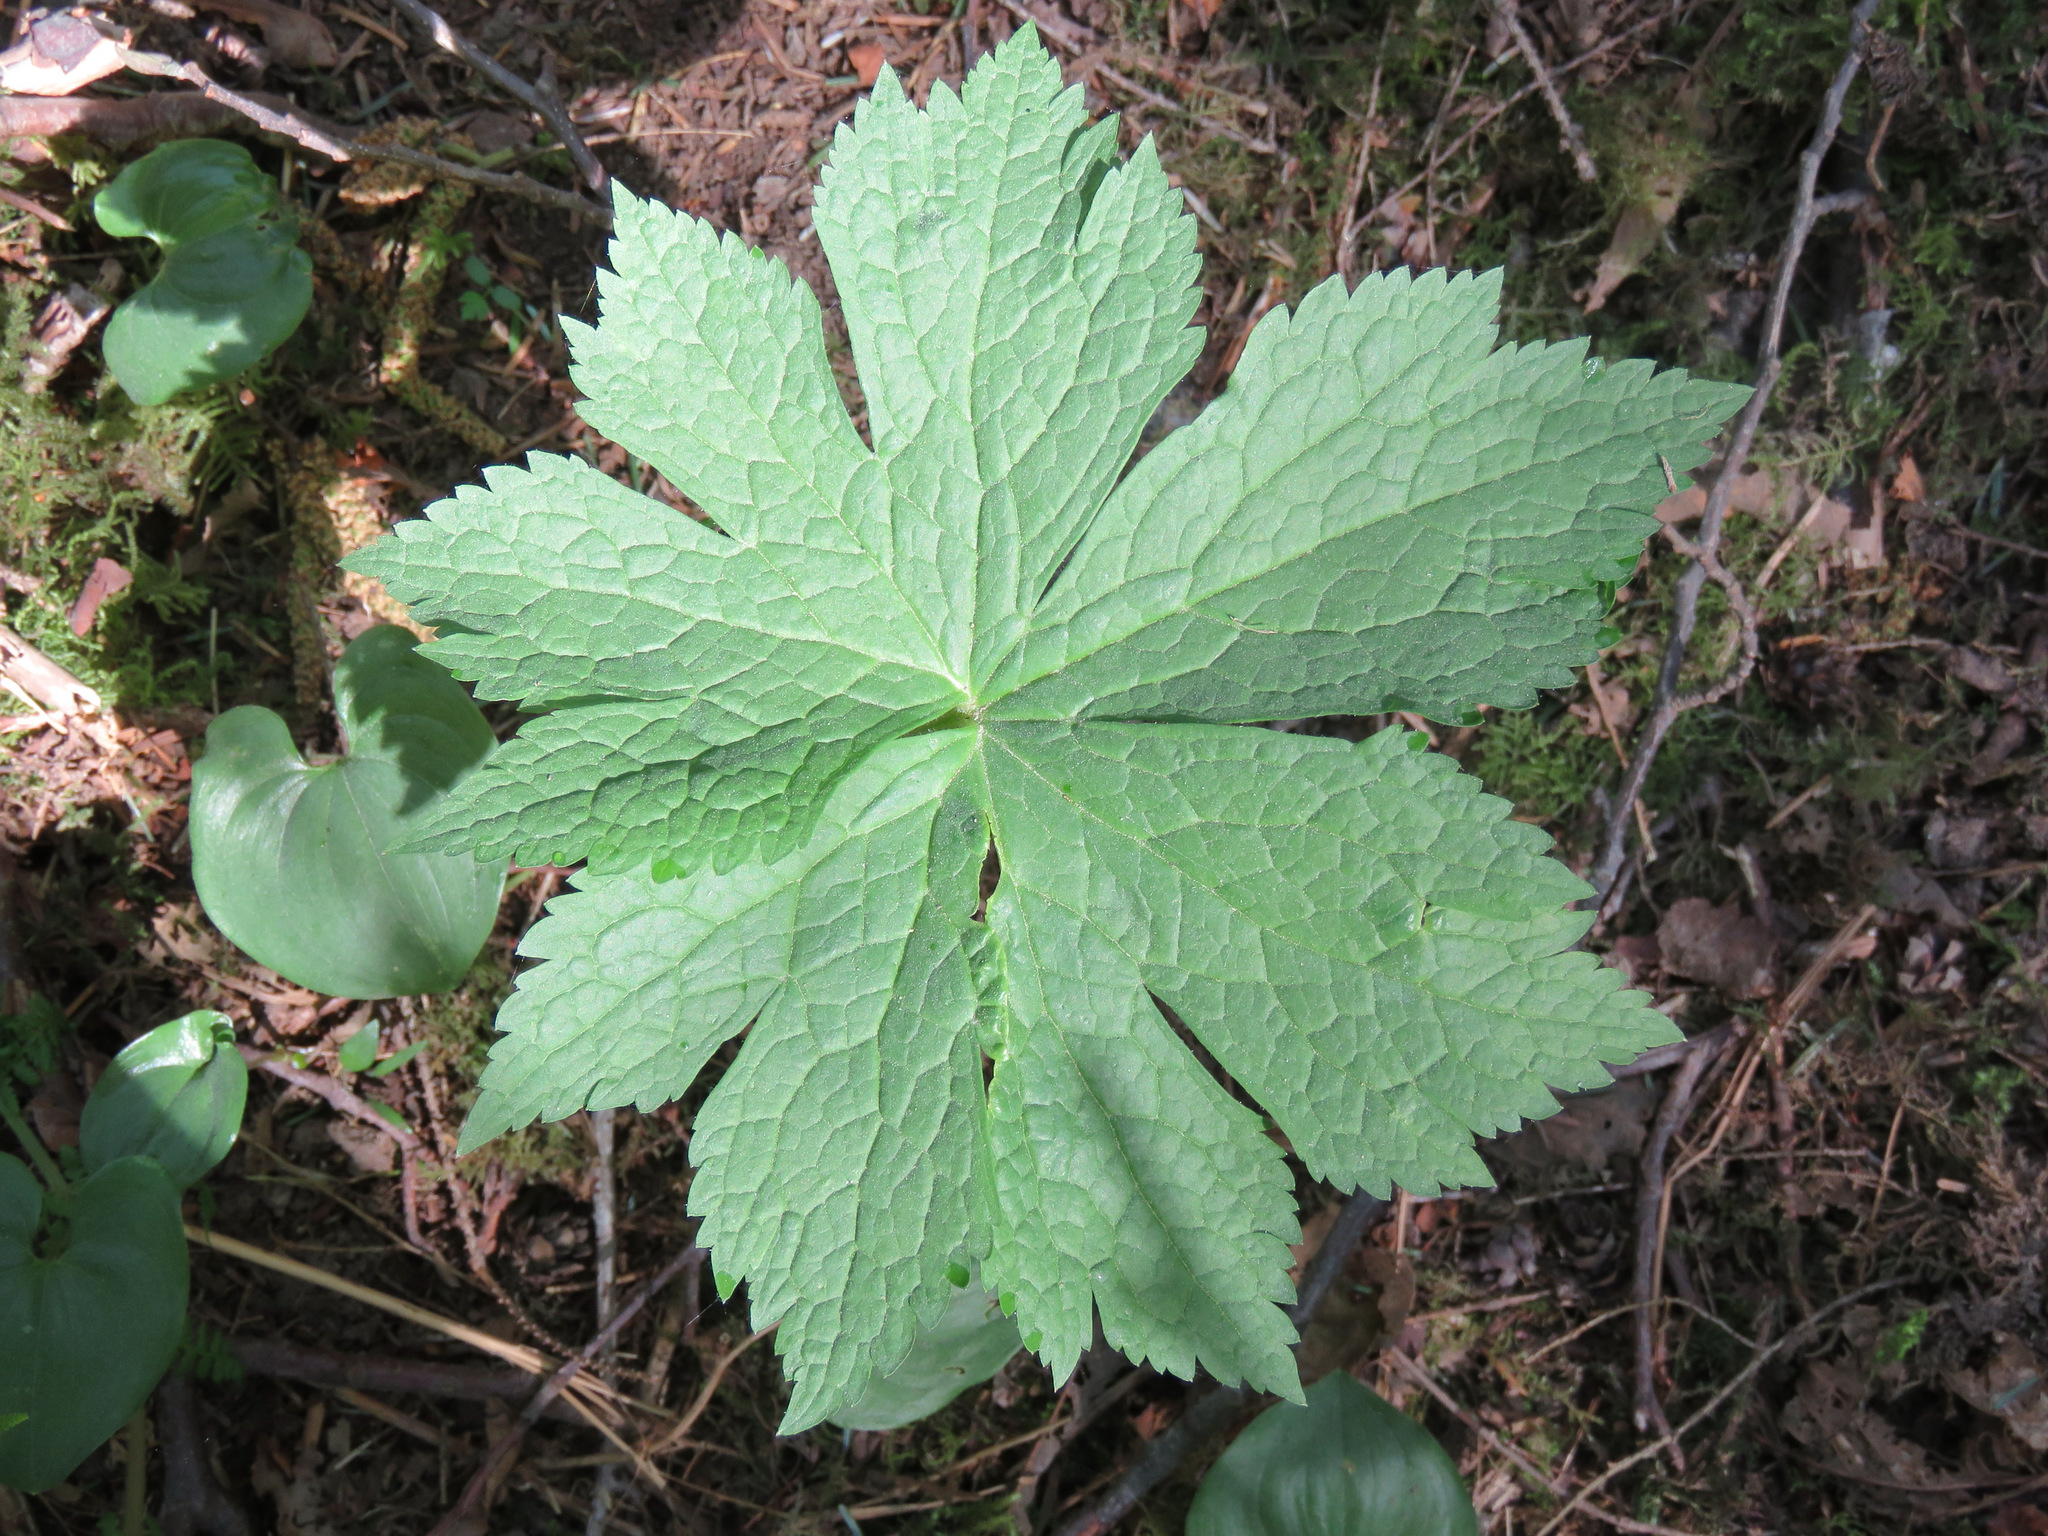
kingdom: Plantae
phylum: Tracheophyta
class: Magnoliopsida
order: Ranunculales
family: Ranunculaceae
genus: Trautvetteria
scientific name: Trautvetteria carolinensis
